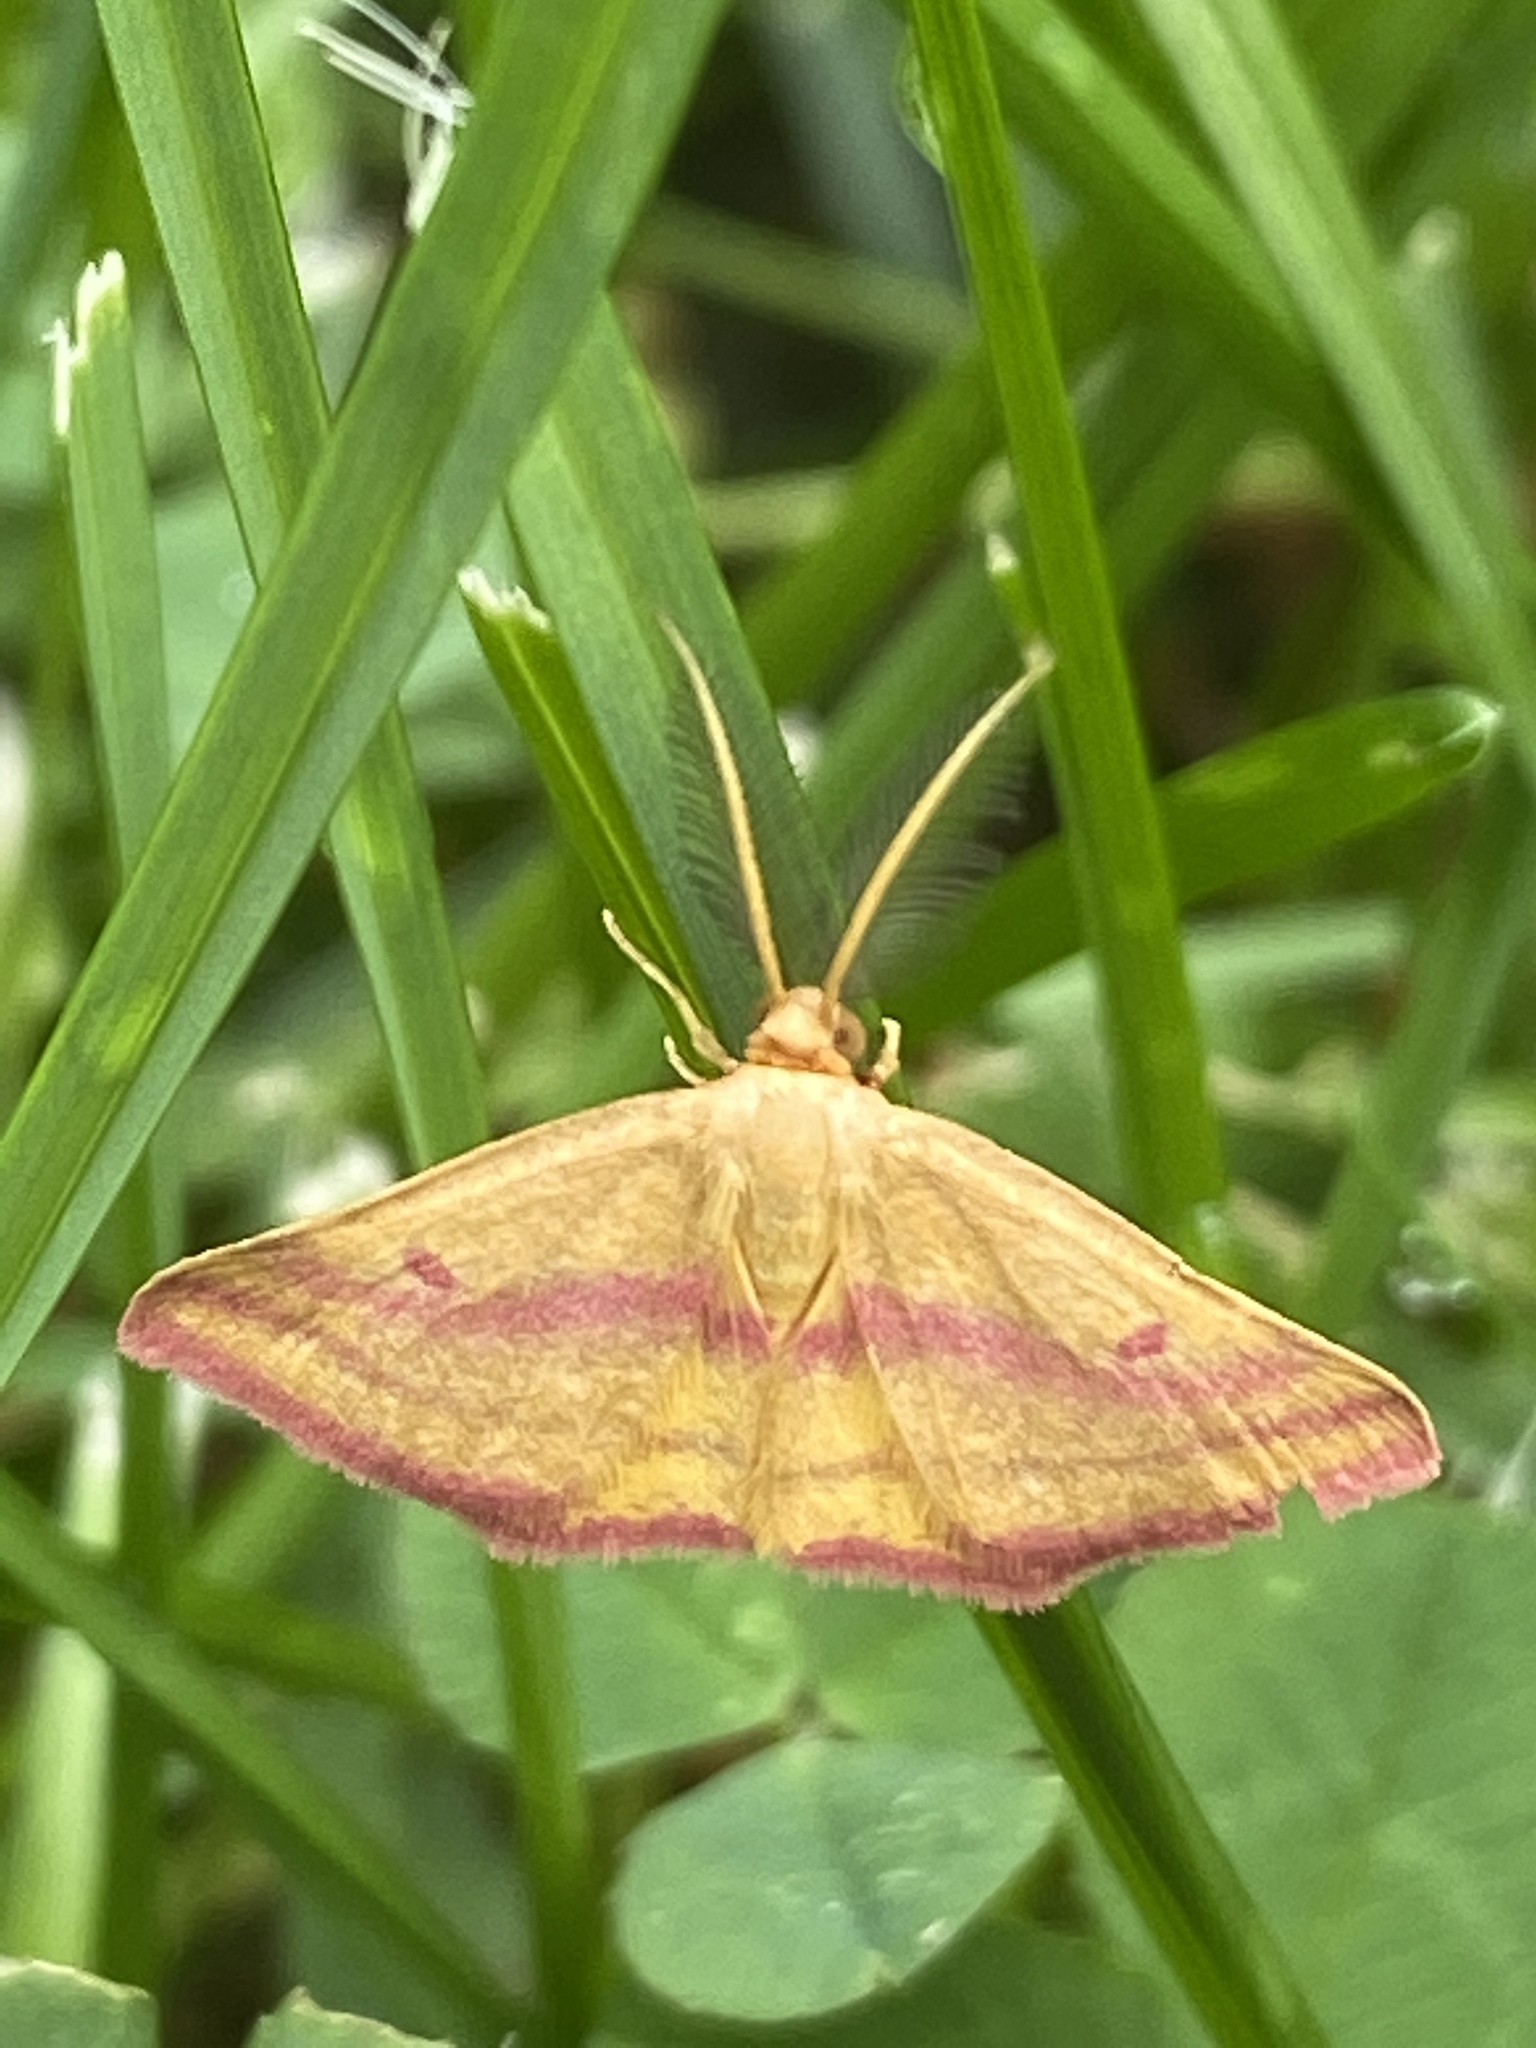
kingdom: Animalia
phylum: Arthropoda
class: Insecta
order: Lepidoptera
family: Geometridae
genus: Haematopis
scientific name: Haematopis grataria
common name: Chickweed geometer
